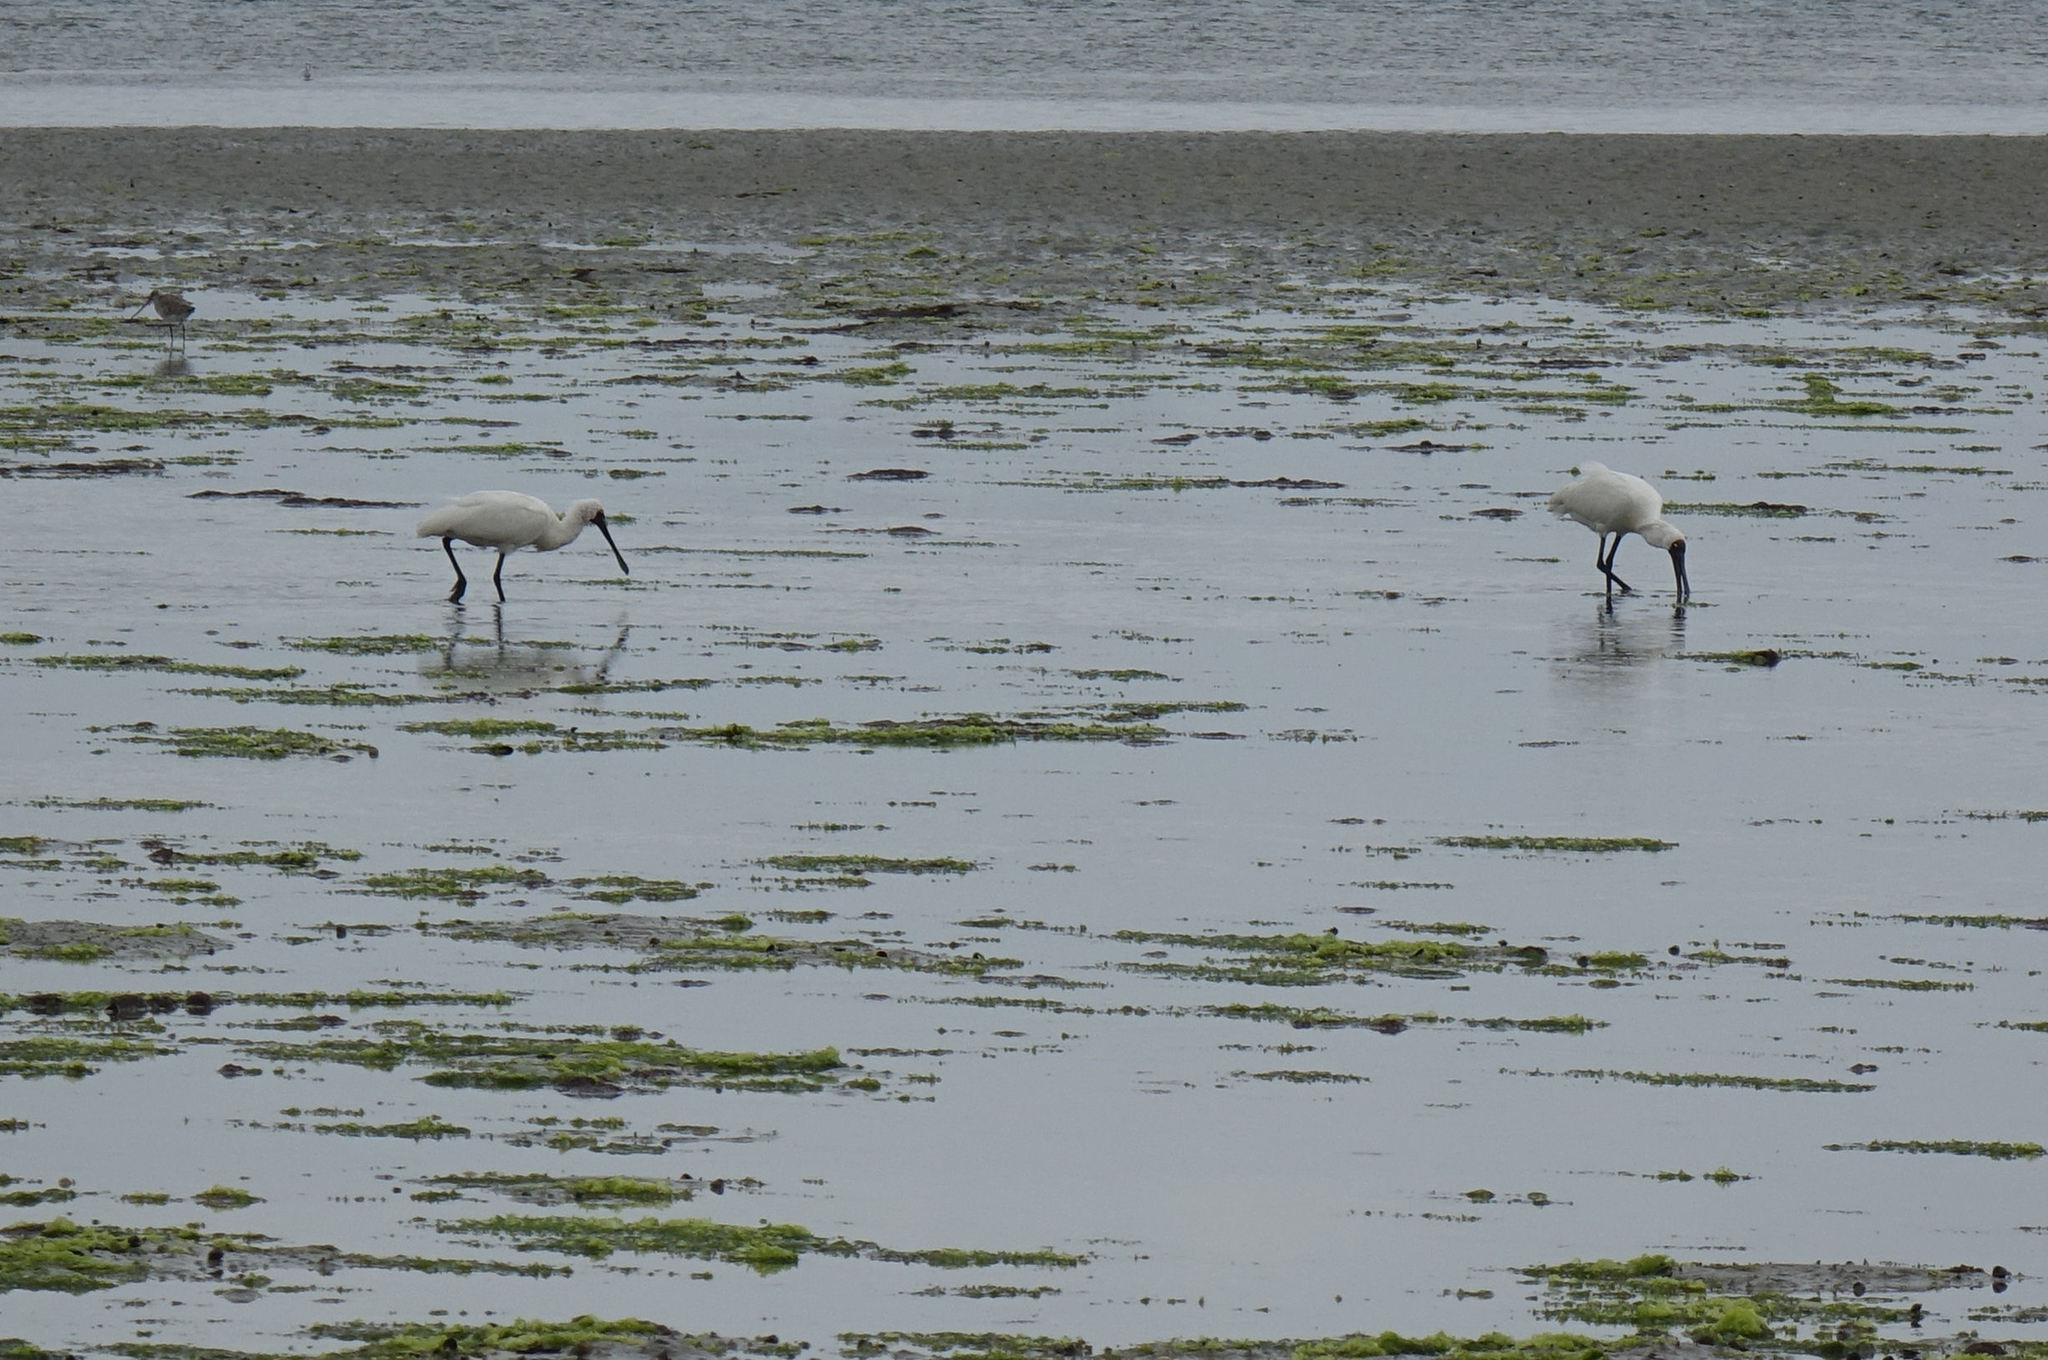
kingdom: Animalia
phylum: Chordata
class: Aves
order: Pelecaniformes
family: Threskiornithidae
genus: Platalea
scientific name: Platalea regia
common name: Royal spoonbill
